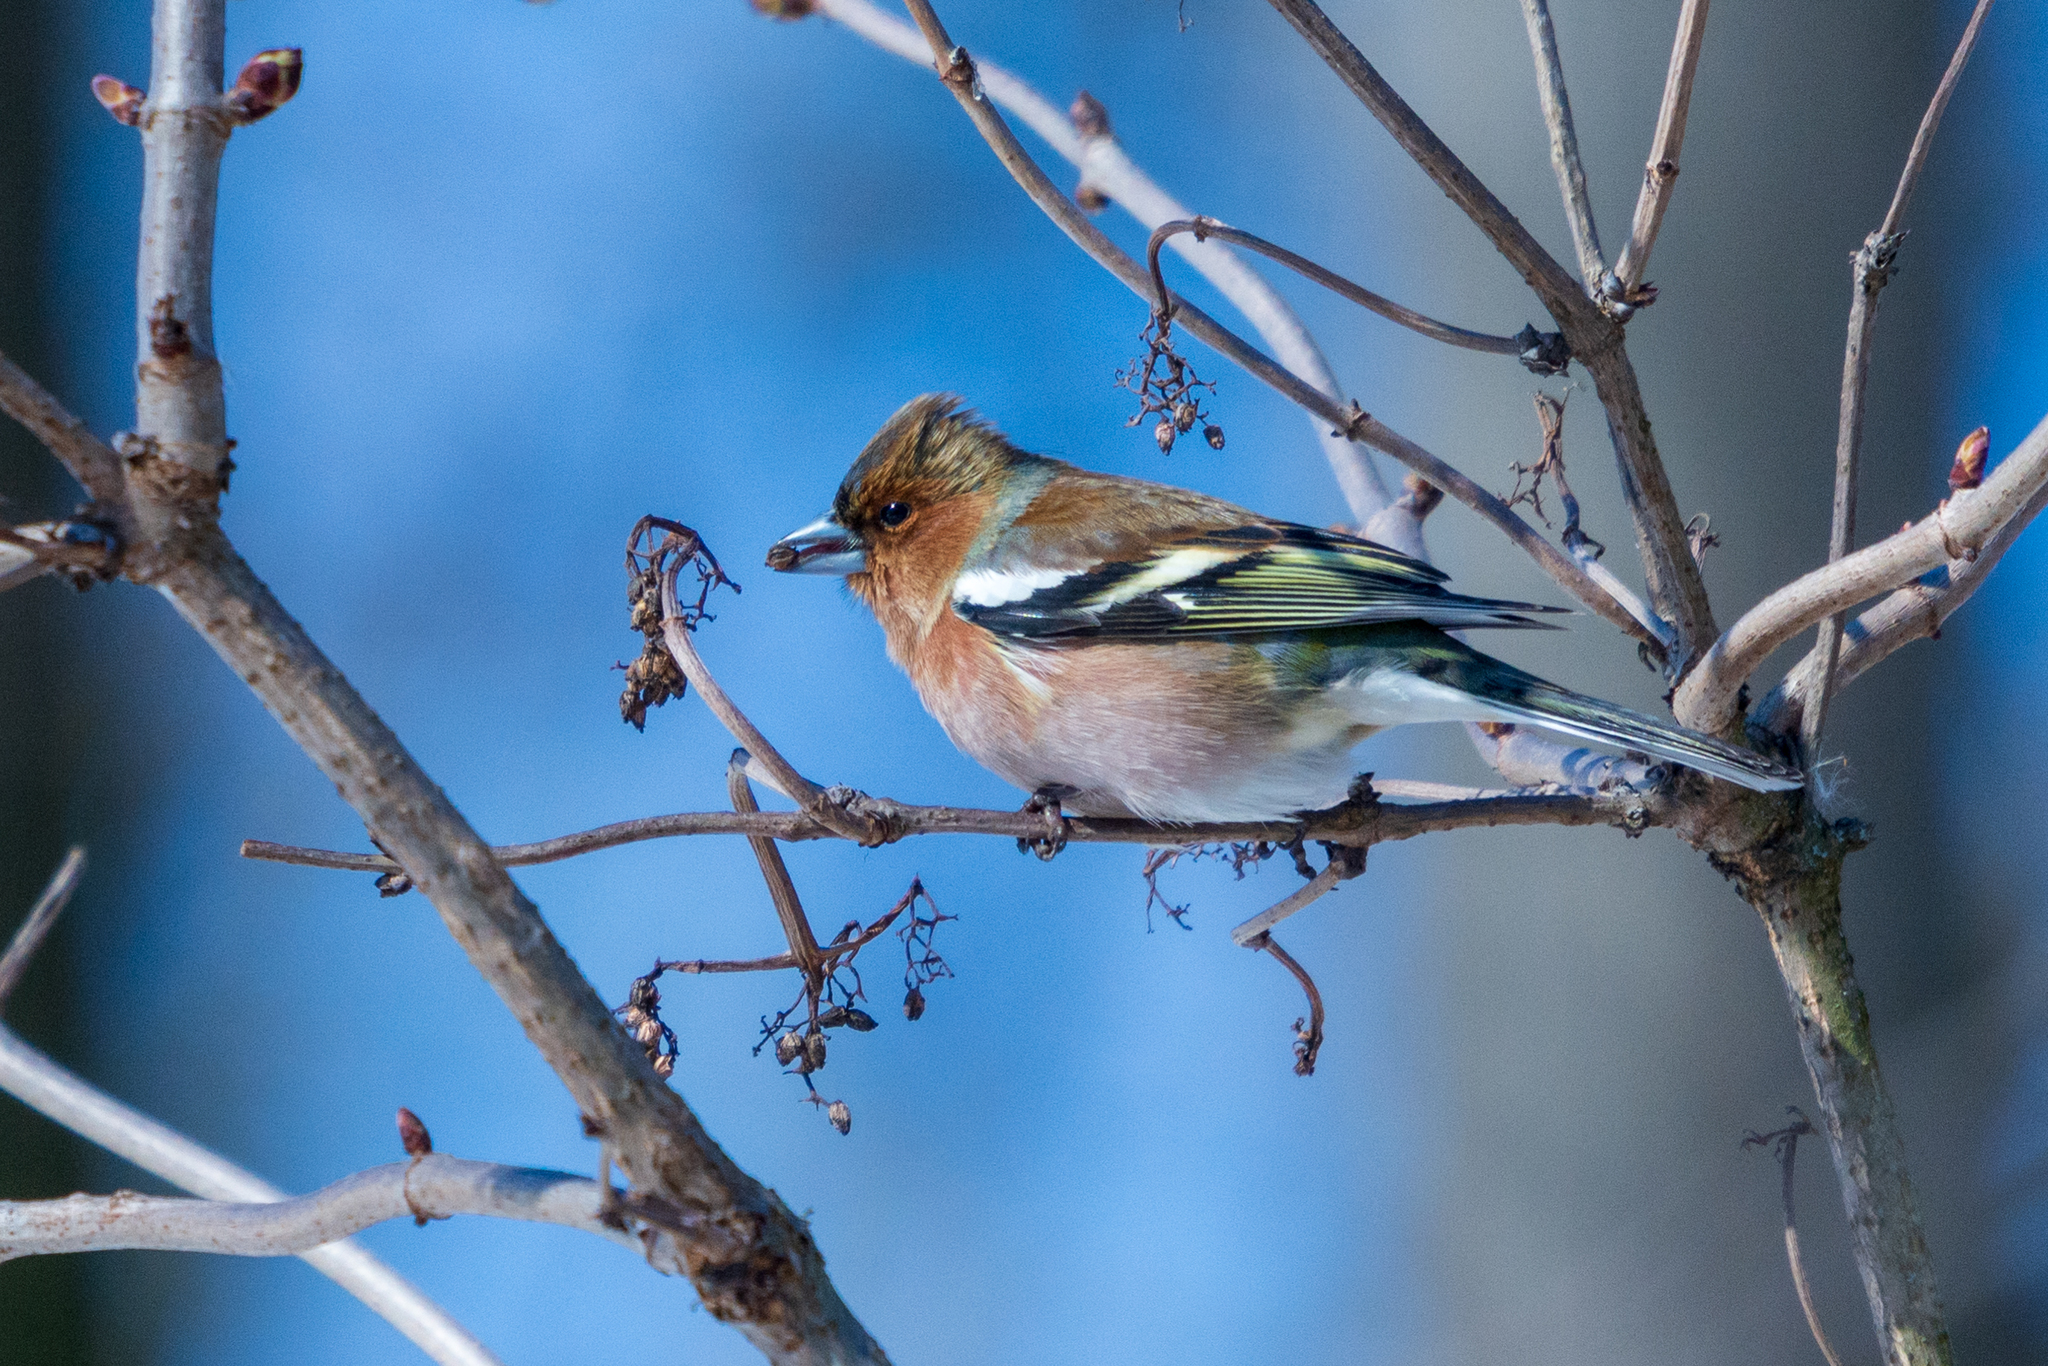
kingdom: Animalia
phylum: Chordata
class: Aves
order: Passeriformes
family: Fringillidae
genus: Fringilla
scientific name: Fringilla coelebs
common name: Common chaffinch
